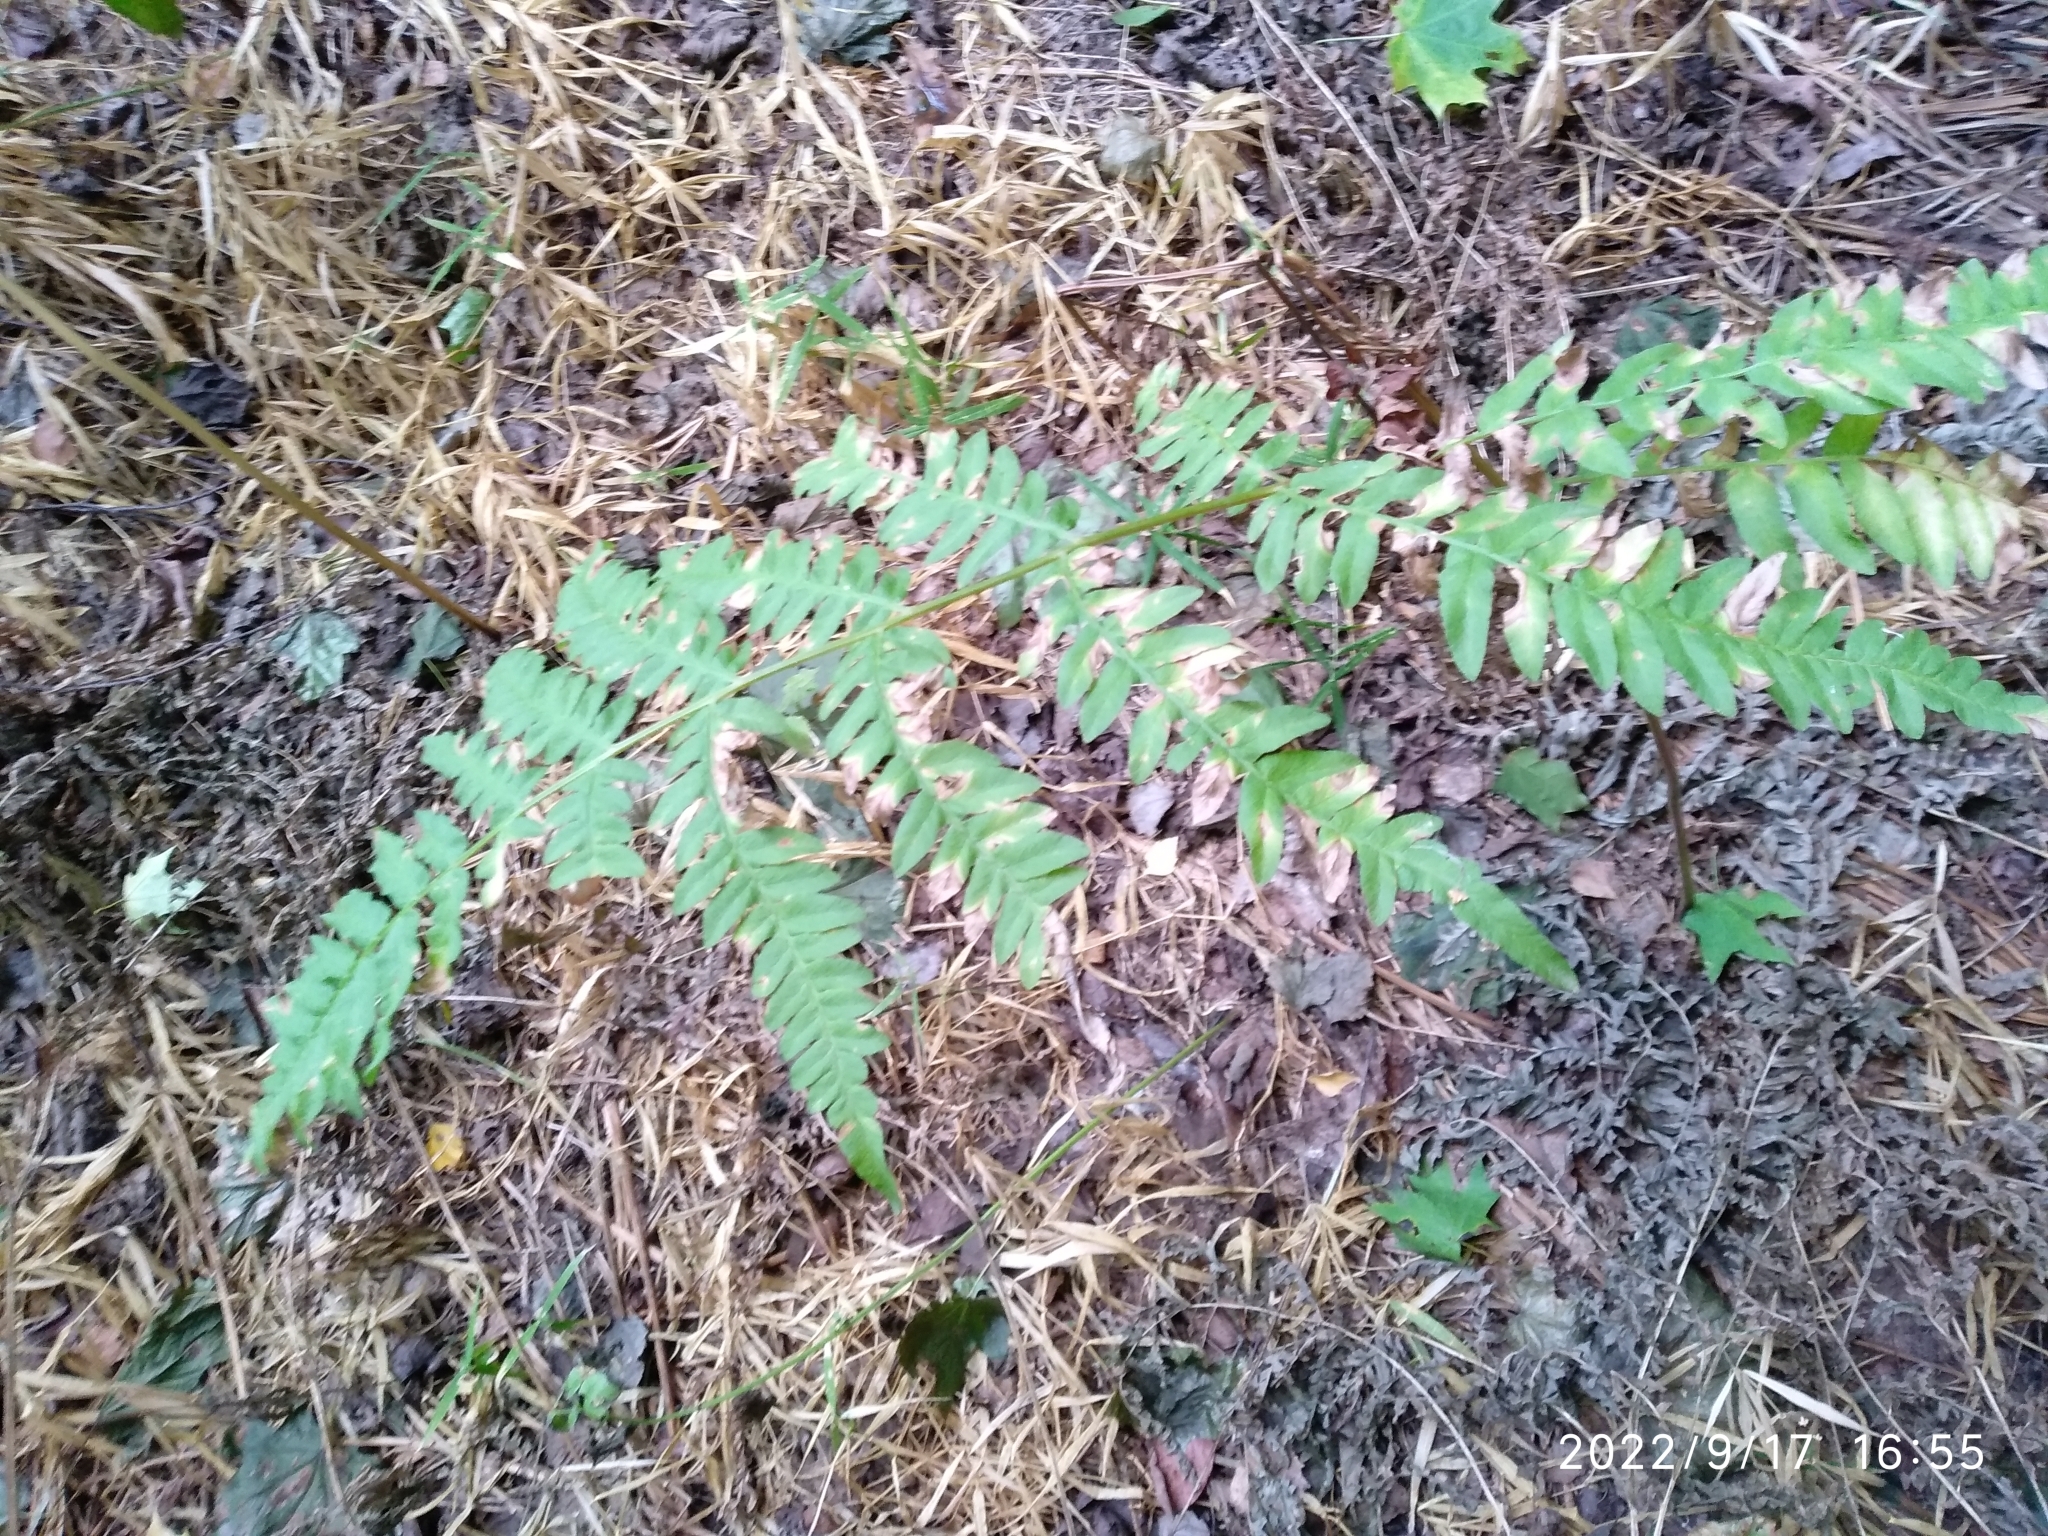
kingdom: Plantae
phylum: Tracheophyta
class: Polypodiopsida
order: Polypodiales
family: Dennstaedtiaceae
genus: Pteridium
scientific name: Pteridium aquilinum
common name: Bracken
